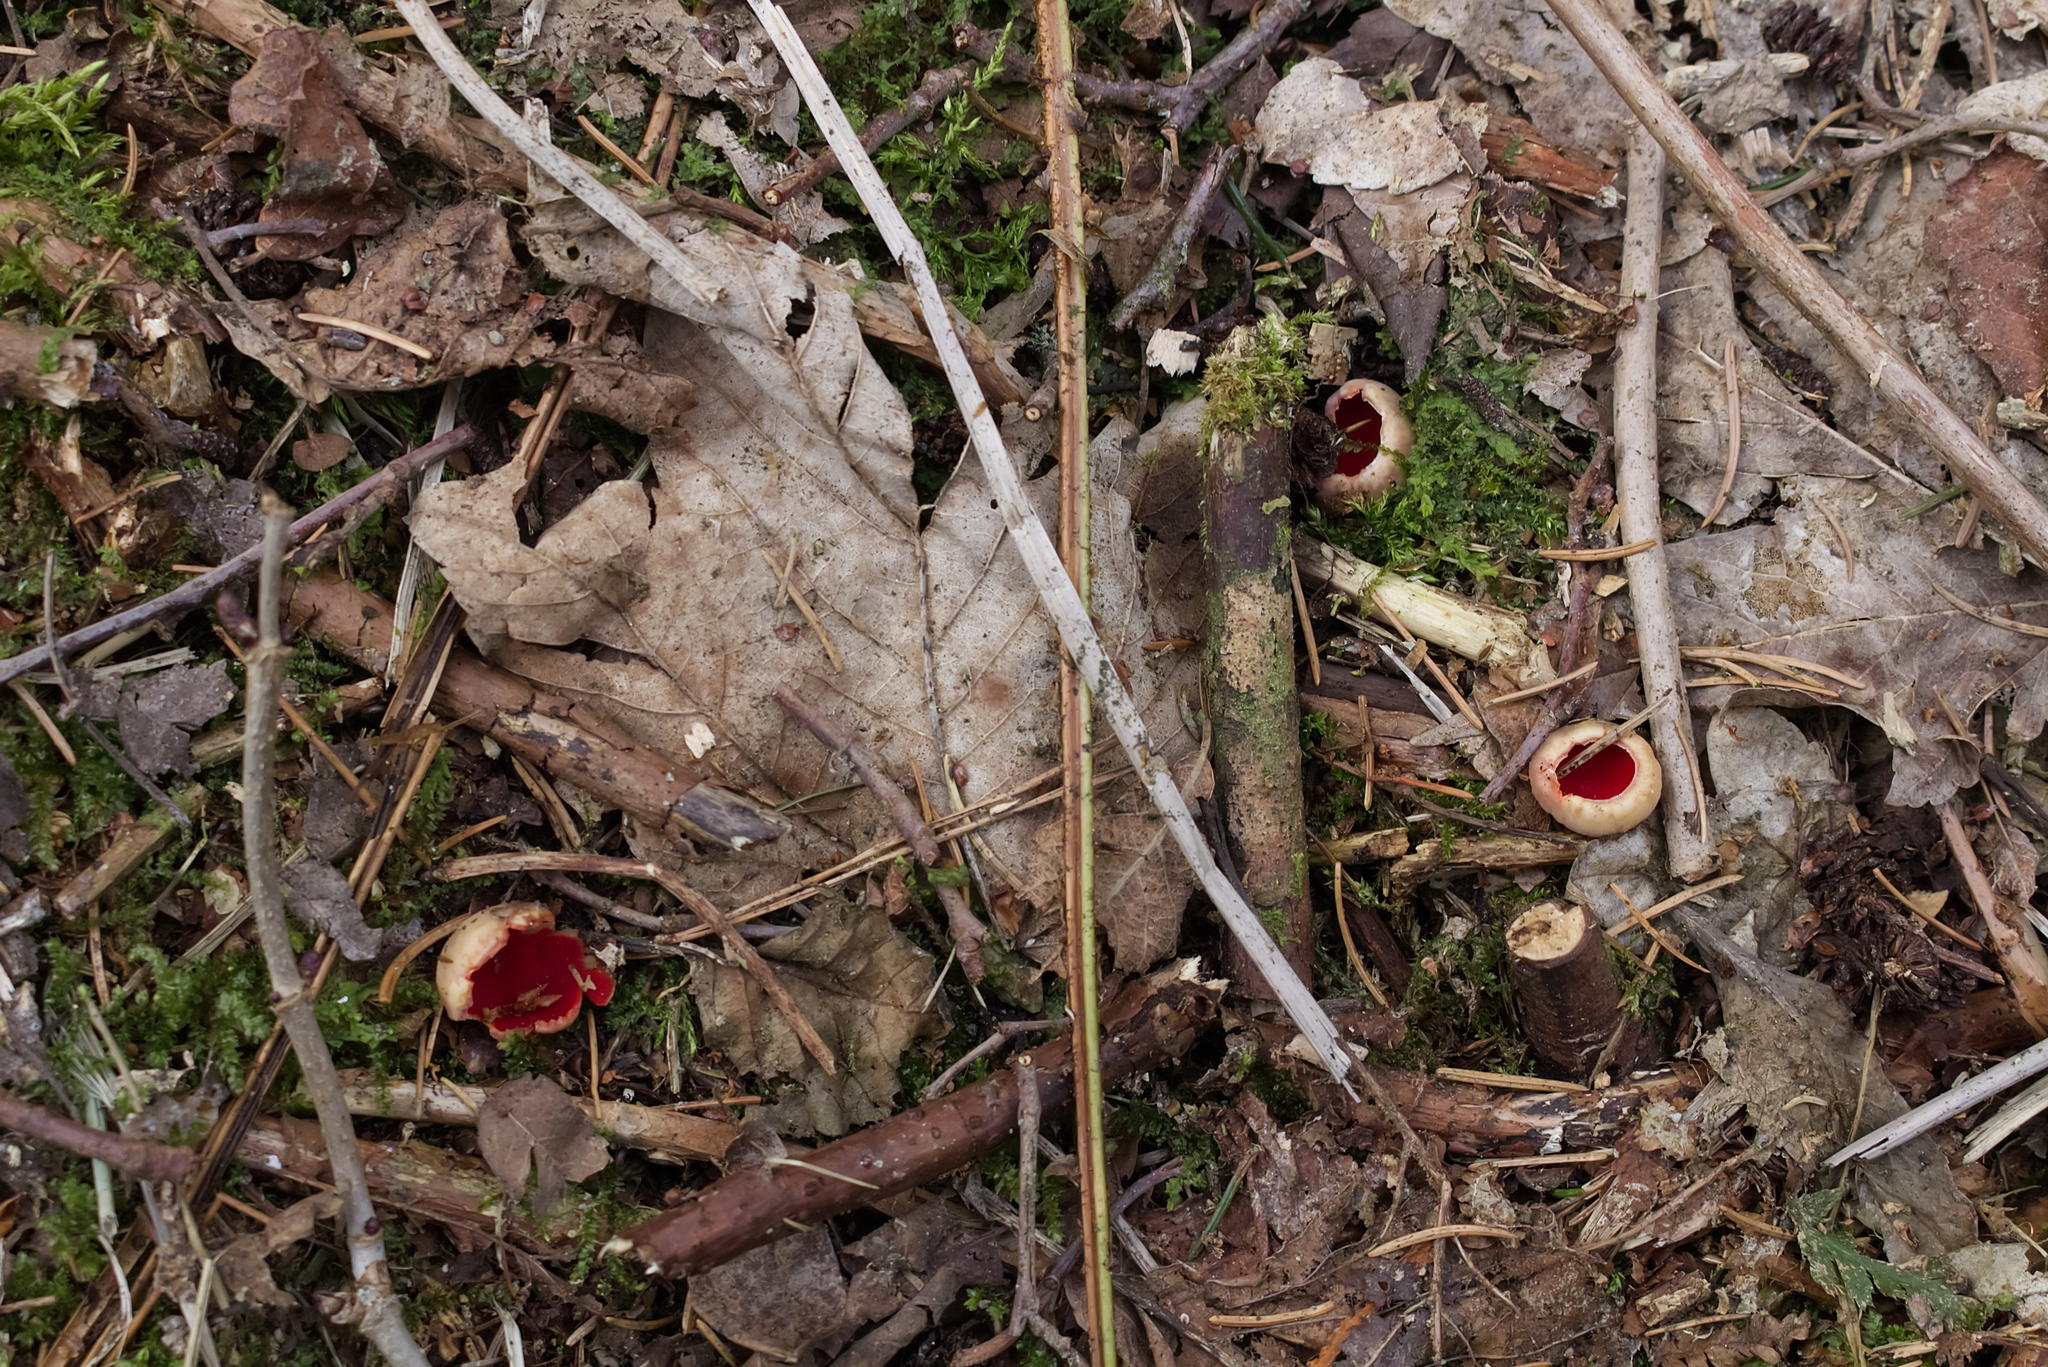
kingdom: Fungi
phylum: Ascomycota
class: Pezizomycetes
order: Pezizales
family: Sarcoscyphaceae
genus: Sarcoscypha
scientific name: Sarcoscypha
